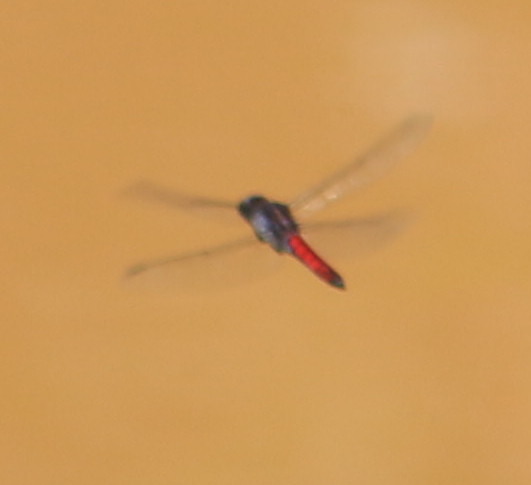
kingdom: Animalia
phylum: Arthropoda
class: Insecta
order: Odonata
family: Libellulidae
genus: Libellula
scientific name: Libellula herculea
